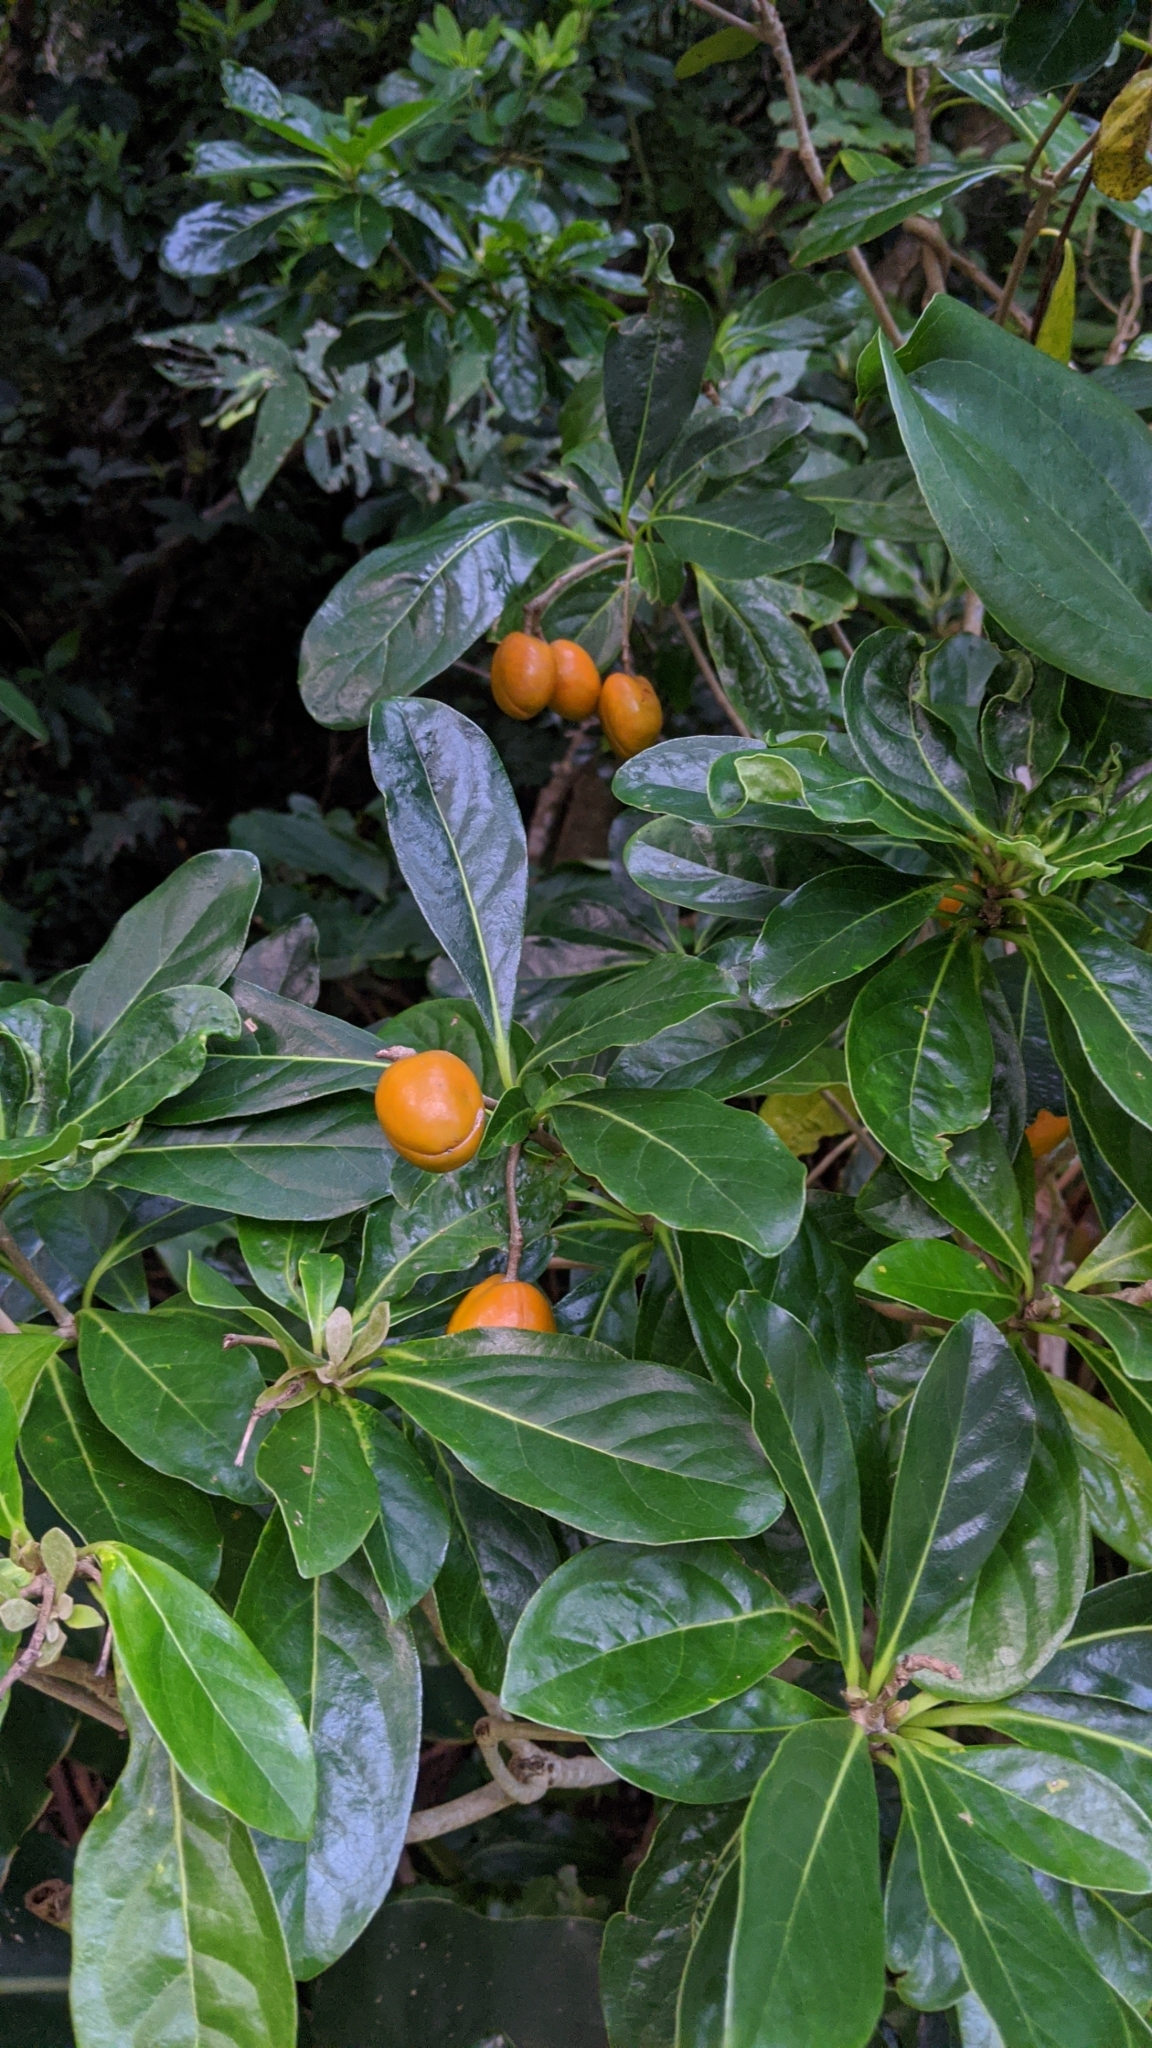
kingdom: Plantae
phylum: Tracheophyta
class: Magnoliopsida
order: Apiales
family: Pittosporaceae
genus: Pittosporum
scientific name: Pittosporum moluccanum
